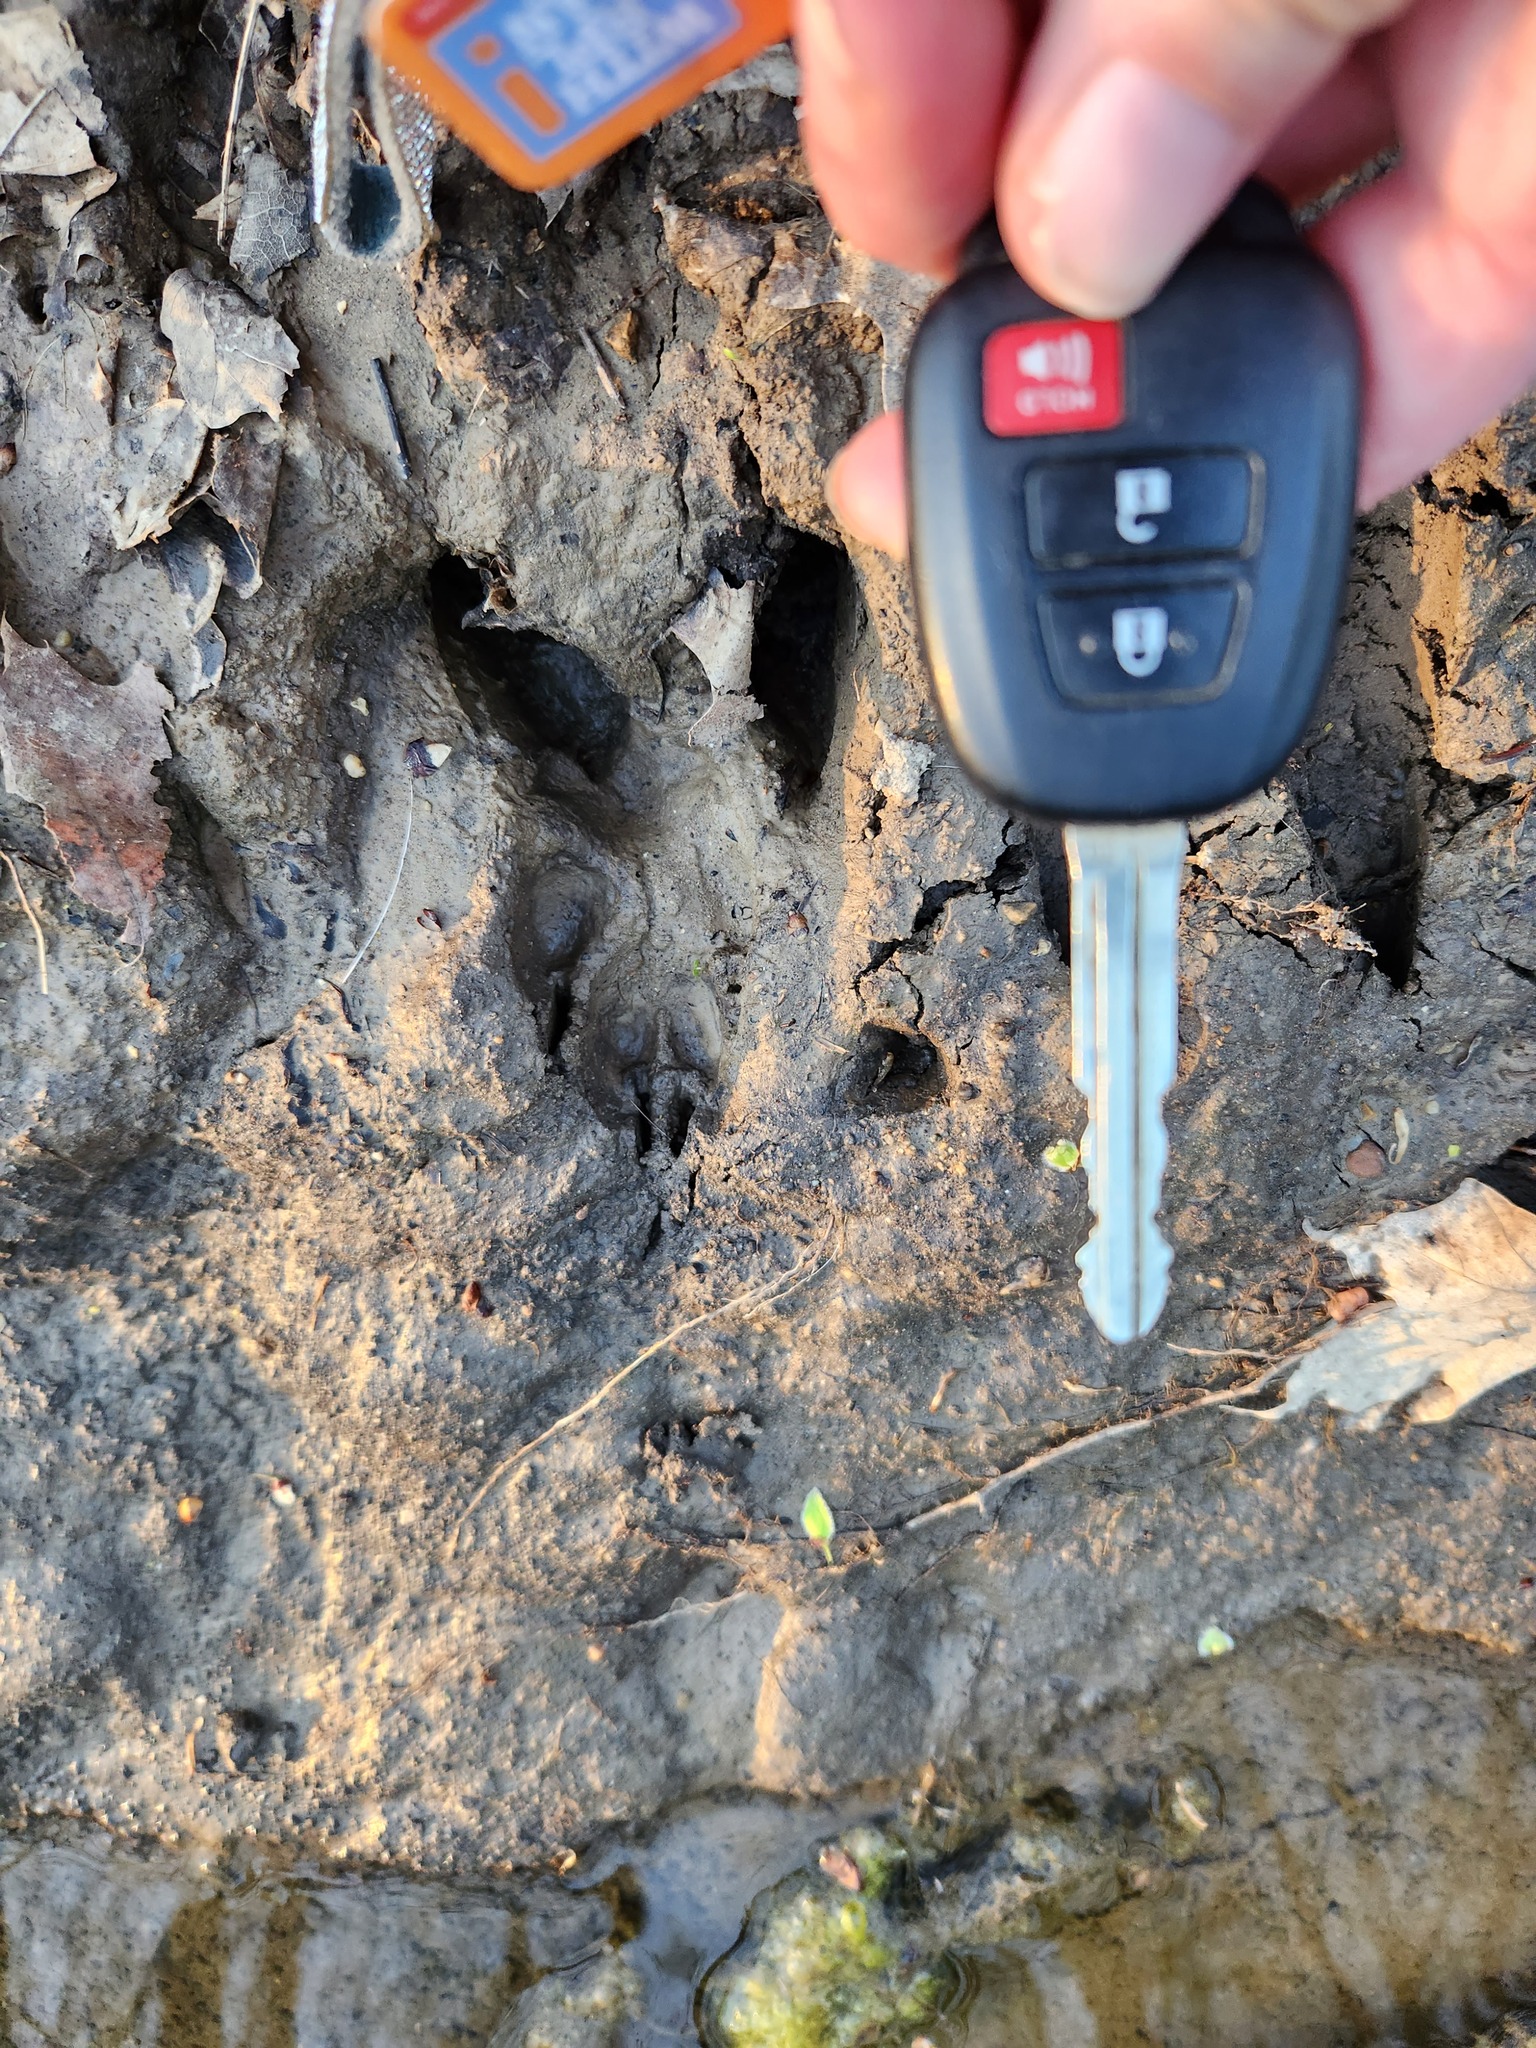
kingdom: Animalia
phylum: Chordata
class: Mammalia
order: Artiodactyla
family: Cervidae
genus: Odocoileus
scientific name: Odocoileus virginianus
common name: White-tailed deer
